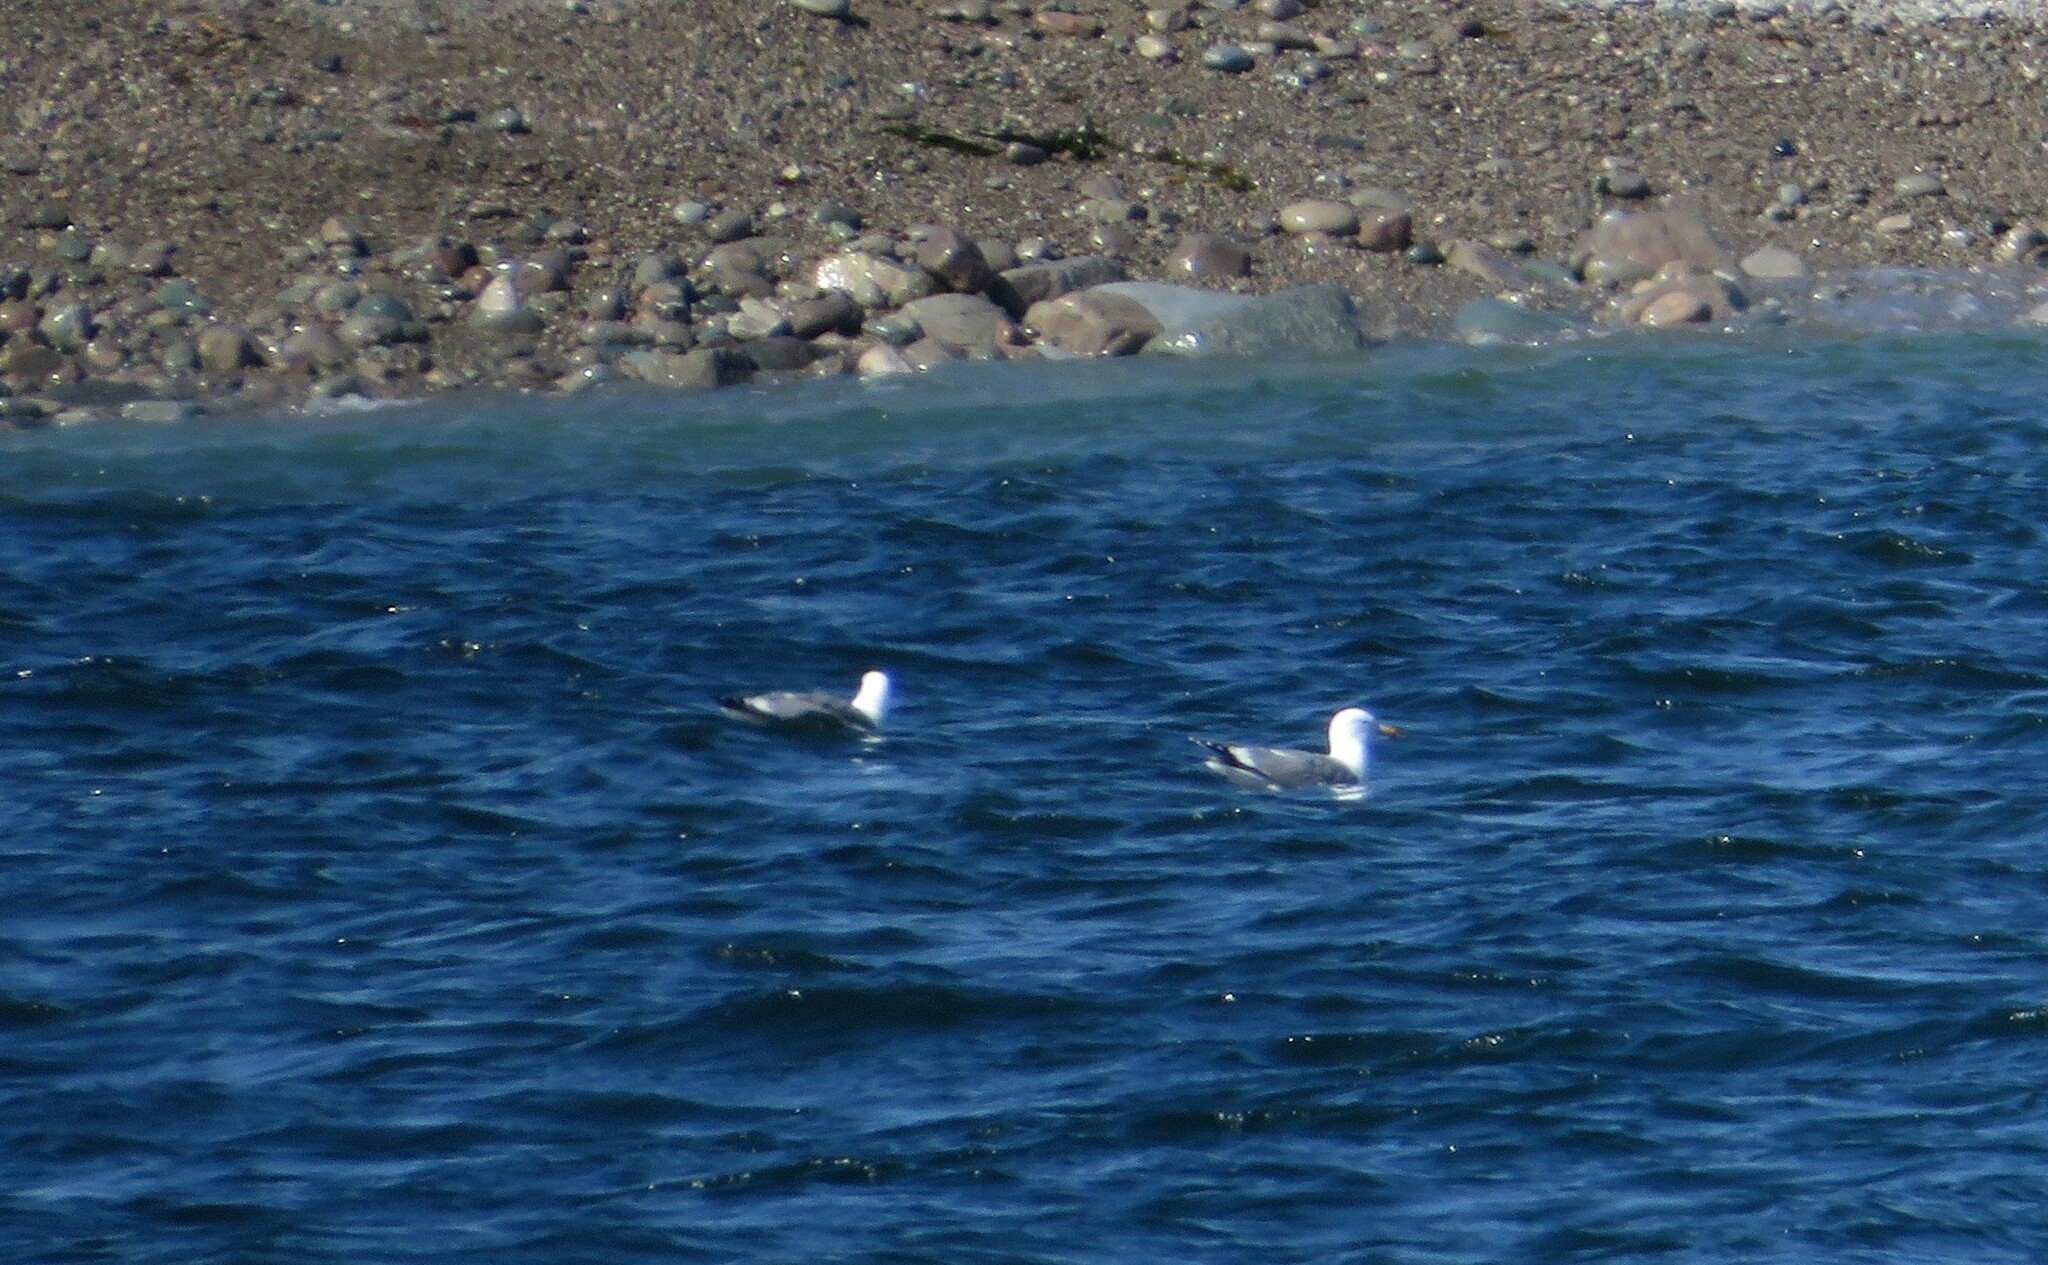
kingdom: Animalia
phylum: Chordata
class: Aves
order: Charadriiformes
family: Laridae
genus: Larus
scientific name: Larus argentatus
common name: Herring gull
